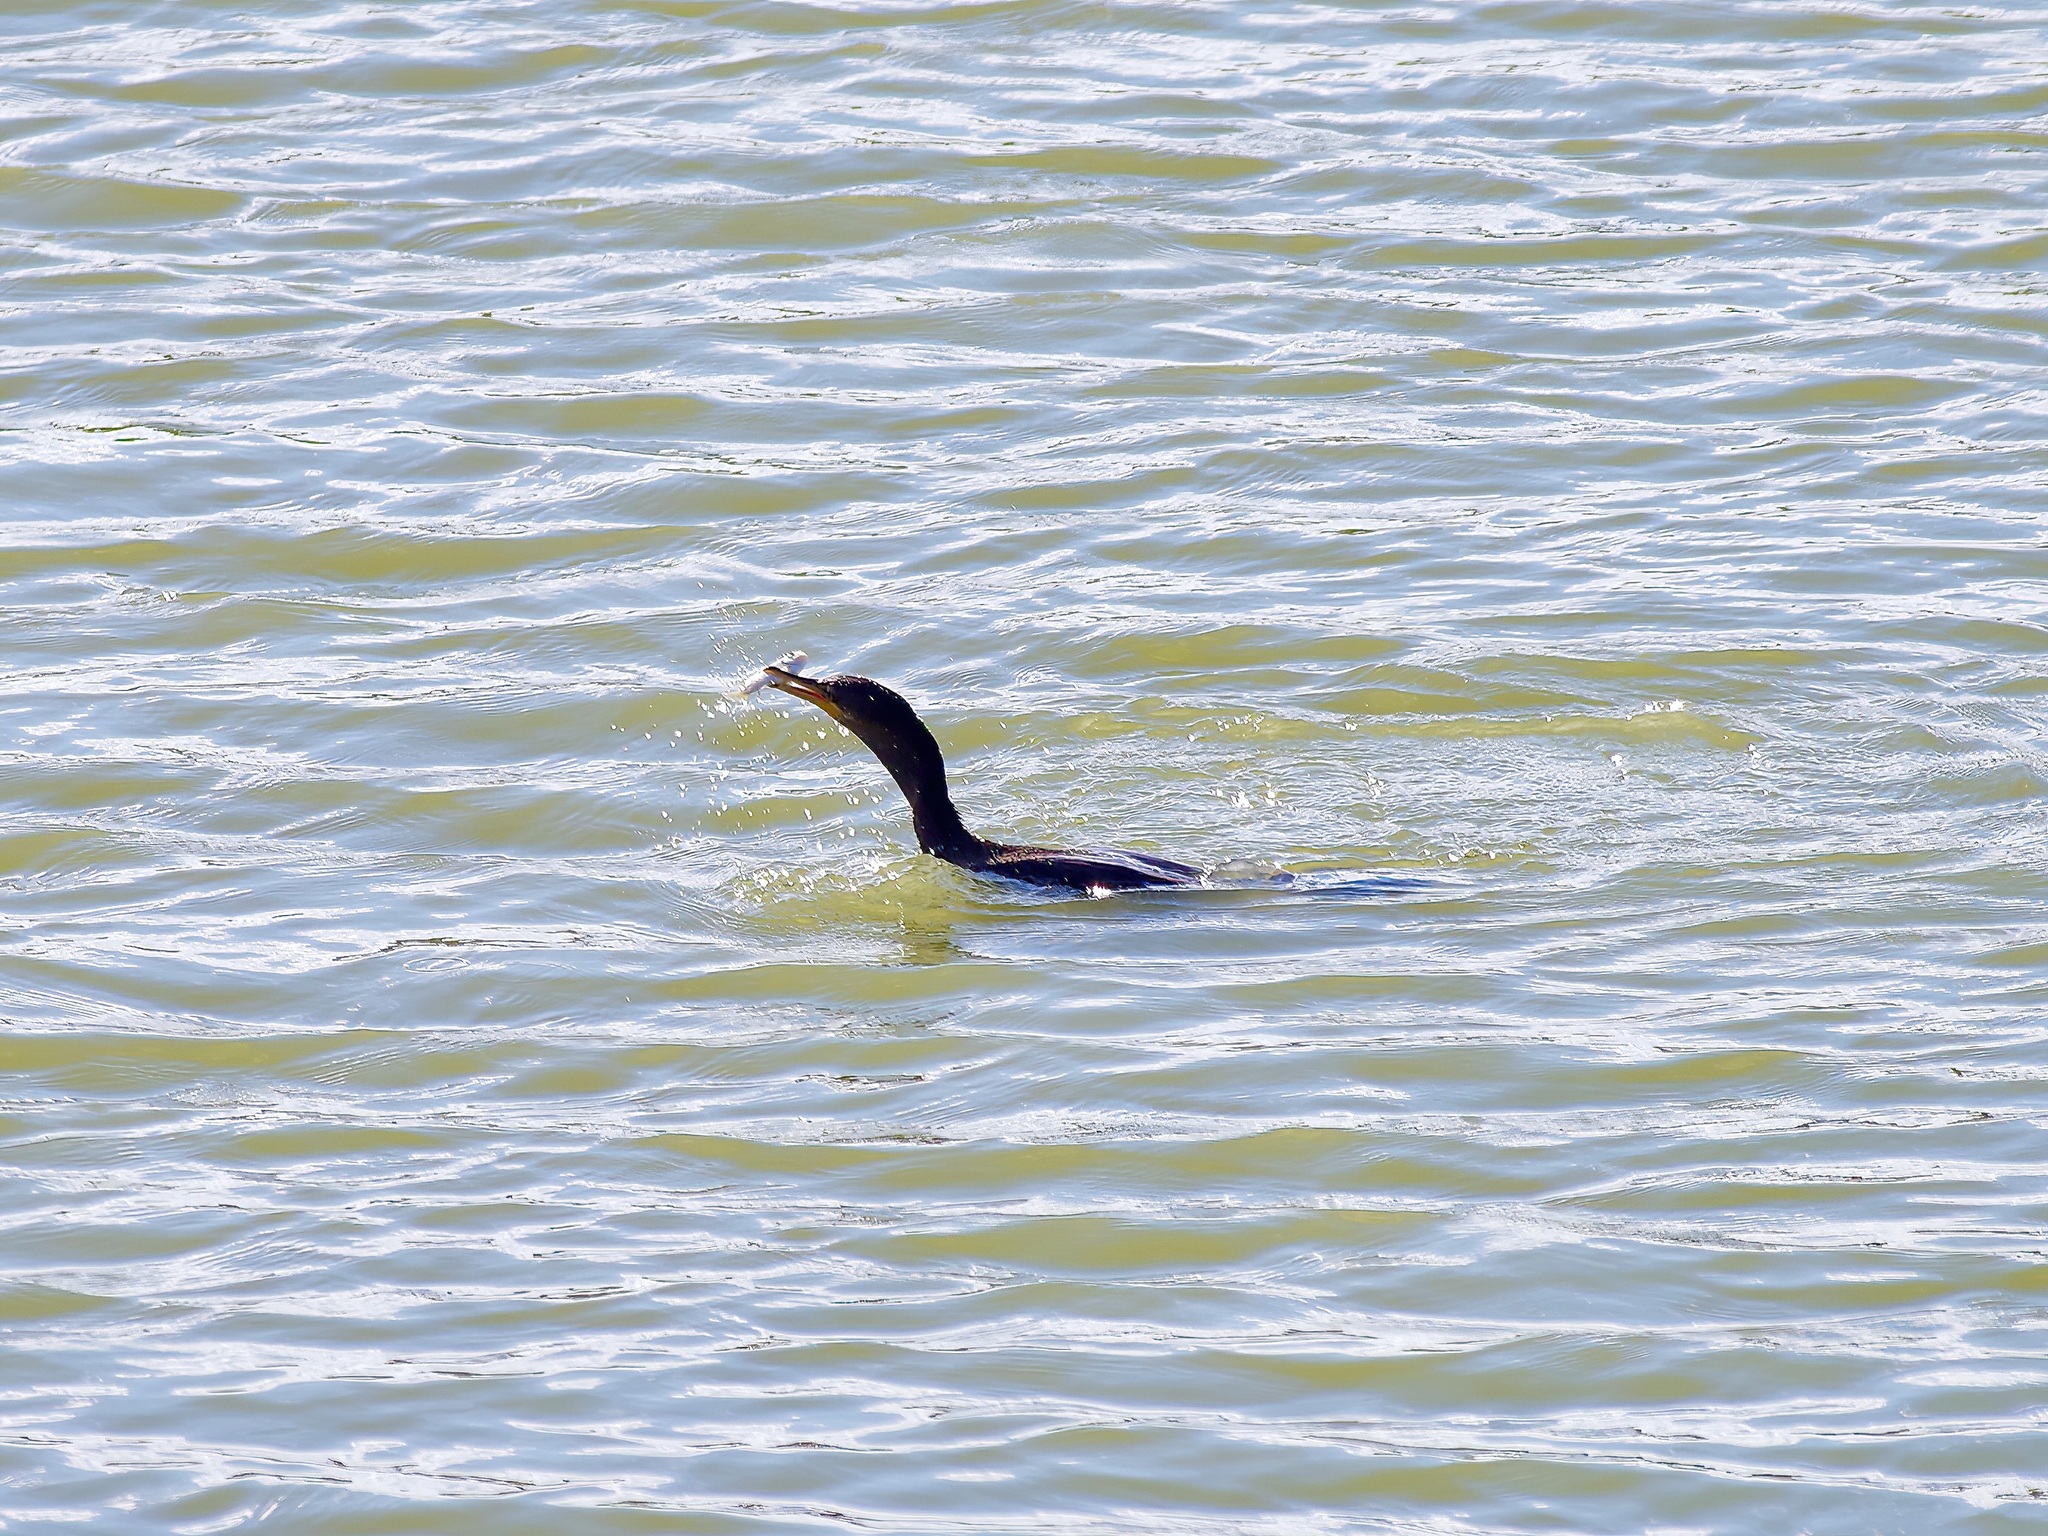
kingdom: Animalia
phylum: Chordata
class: Aves
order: Suliformes
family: Phalacrocoracidae
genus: Phalacrocorax
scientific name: Phalacrocorax auritus
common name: Double-crested cormorant
